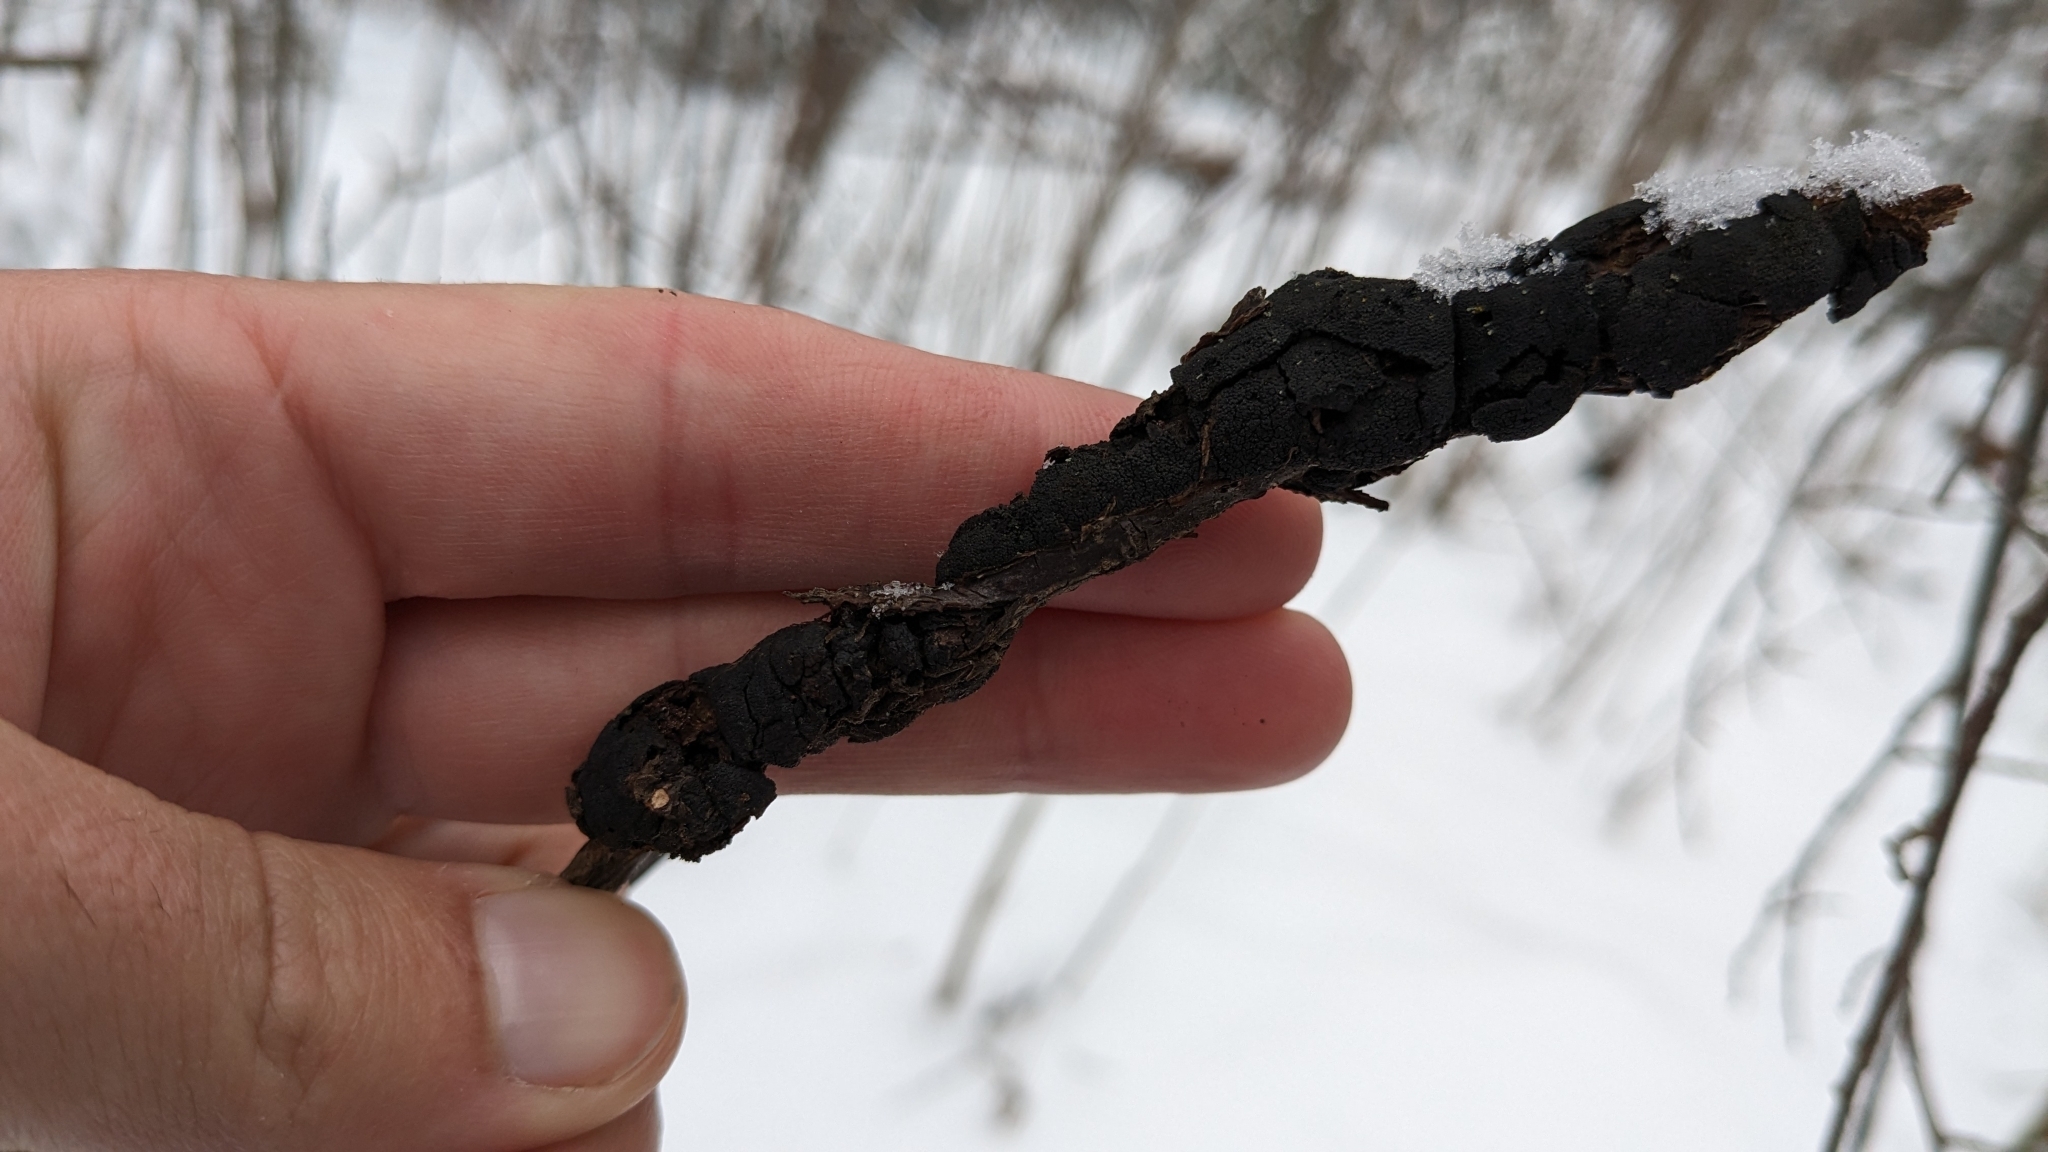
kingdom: Fungi
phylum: Ascomycota
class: Dothideomycetes
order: Venturiales
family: Venturiaceae
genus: Apiosporina
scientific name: Apiosporina morbosa
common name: Black knot
